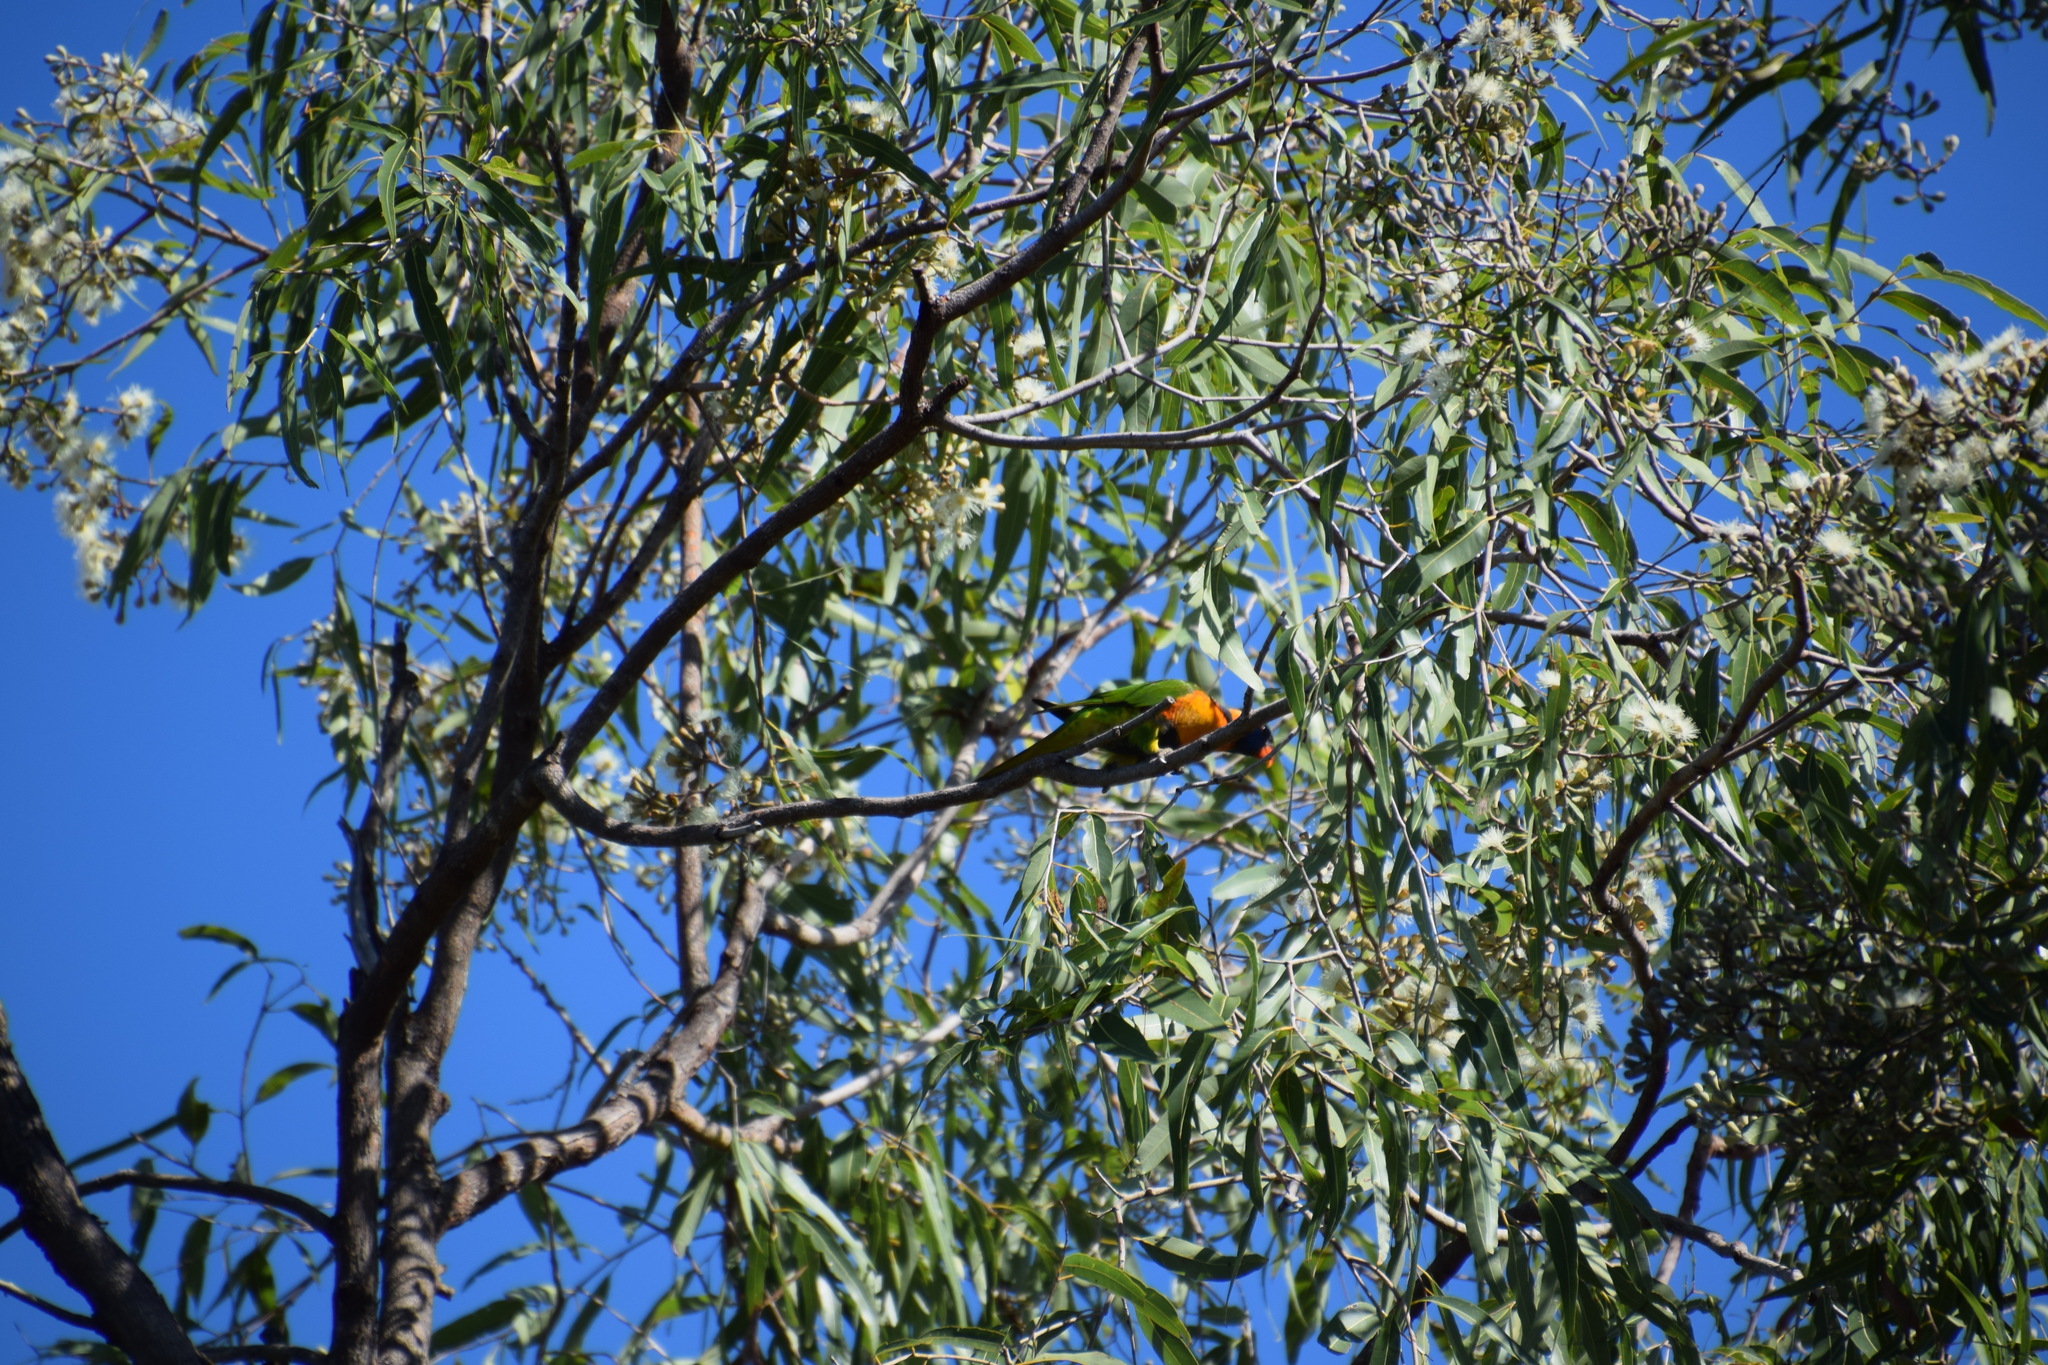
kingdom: Animalia
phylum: Chordata
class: Aves
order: Psittaciformes
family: Psittacidae
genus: Trichoglossus
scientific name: Trichoglossus rubritorquis
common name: Red-collared lorikeet
